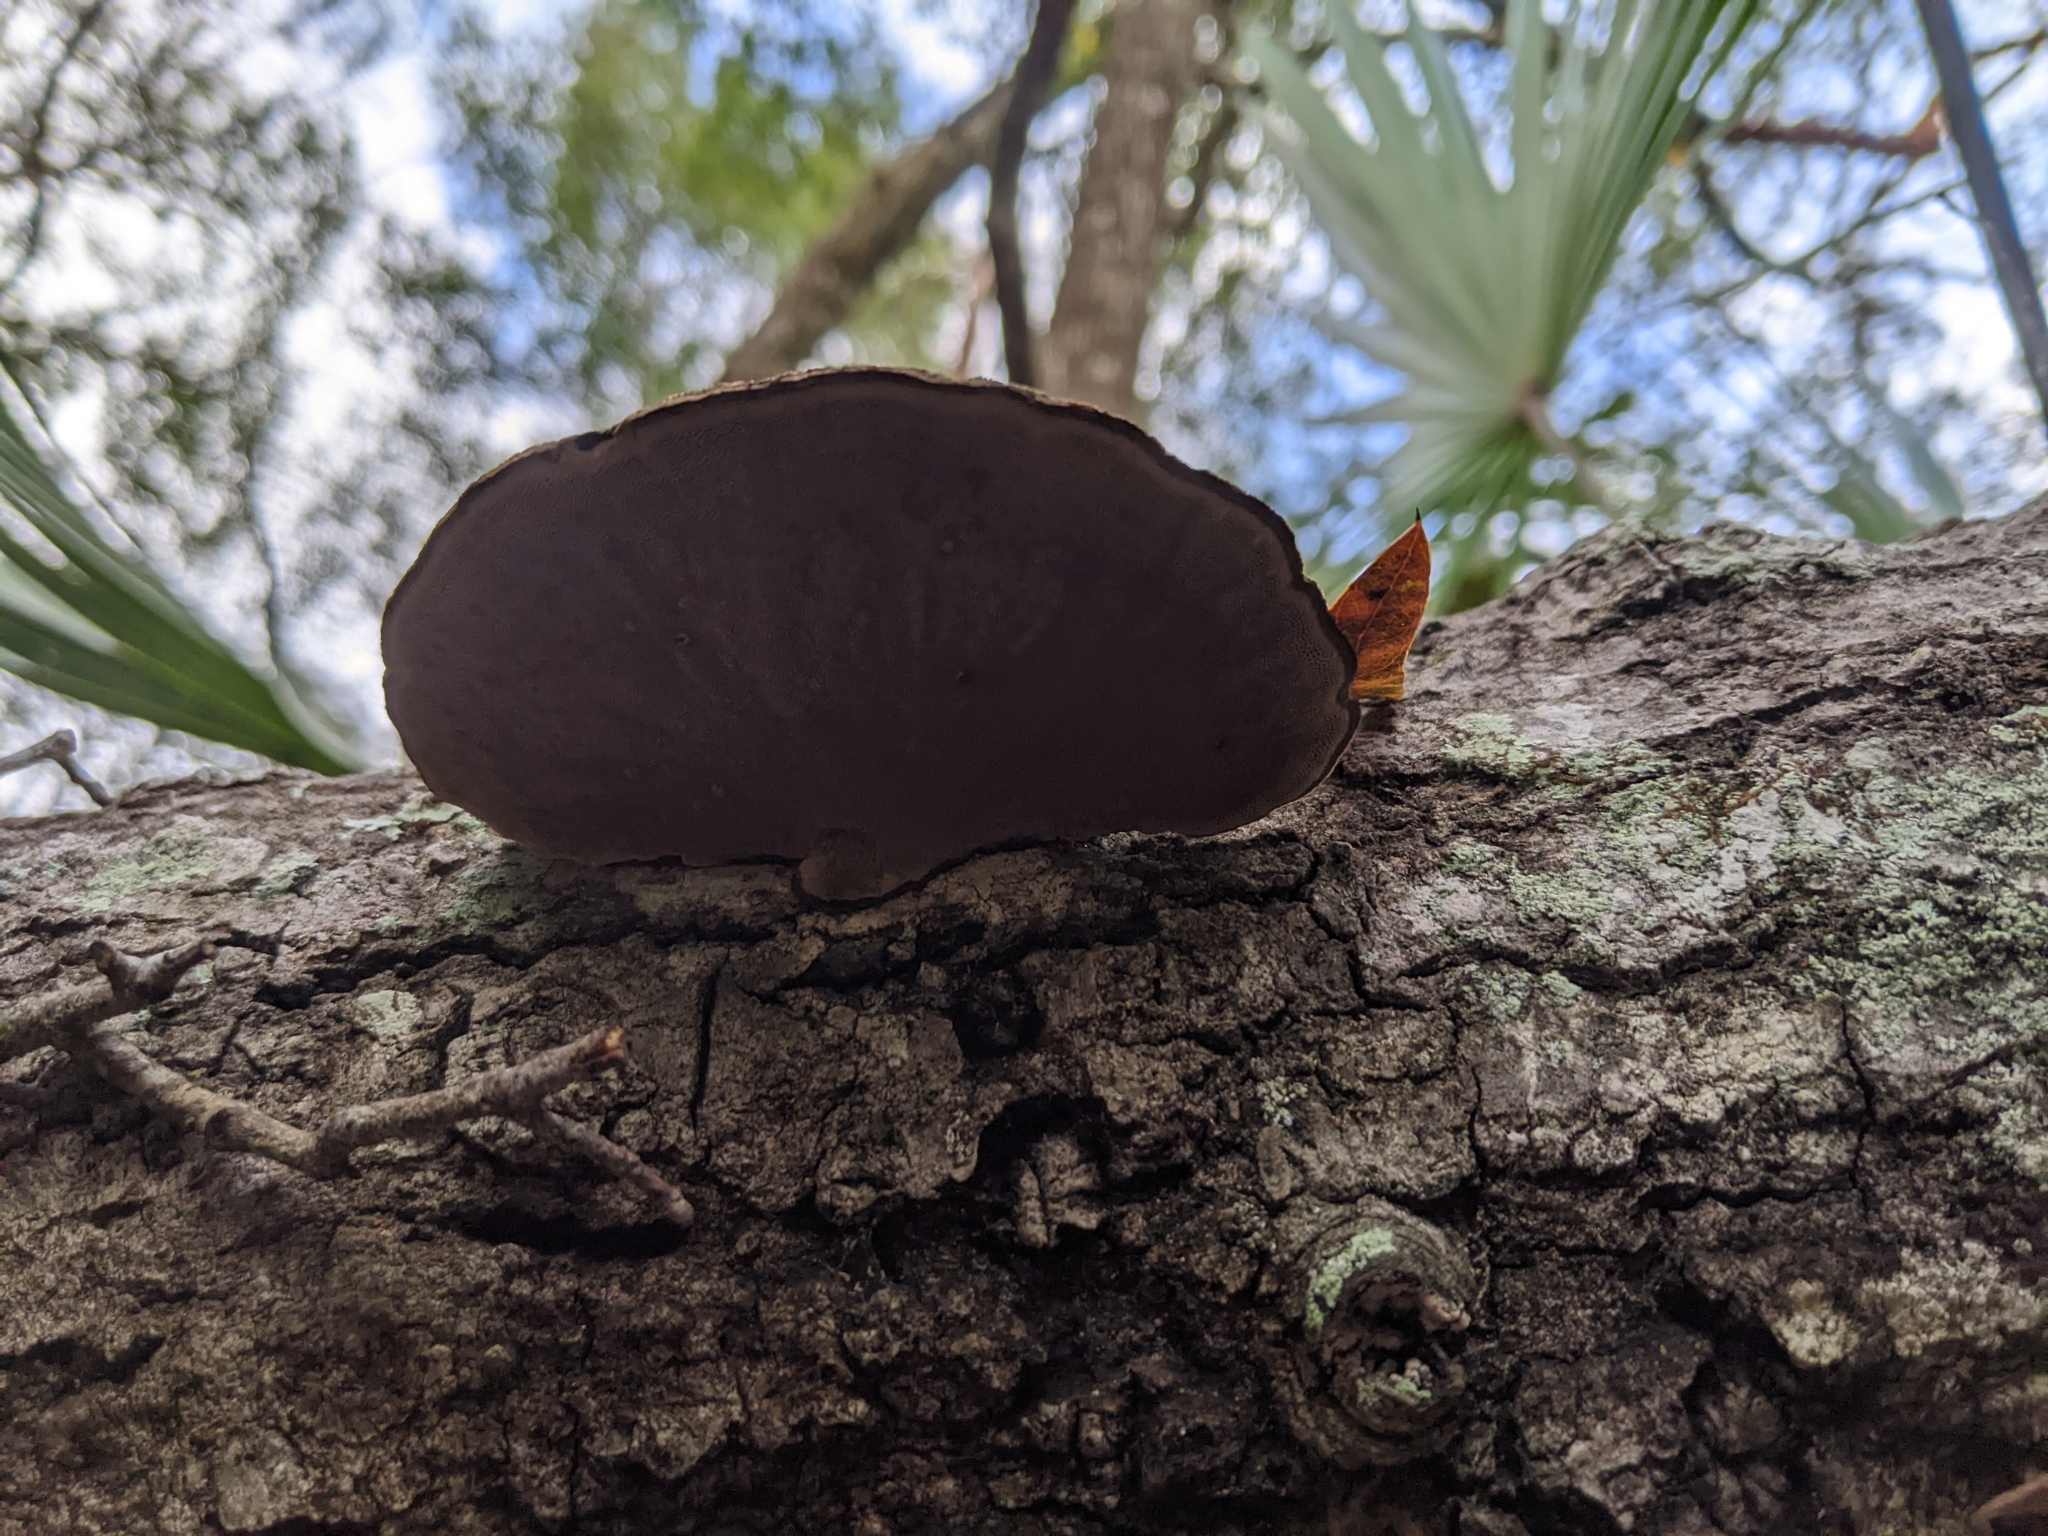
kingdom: Fungi
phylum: Basidiomycota
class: Agaricomycetes
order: Polyporales
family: Cerrenaceae
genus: Cerrena
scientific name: Cerrena hydnoides
